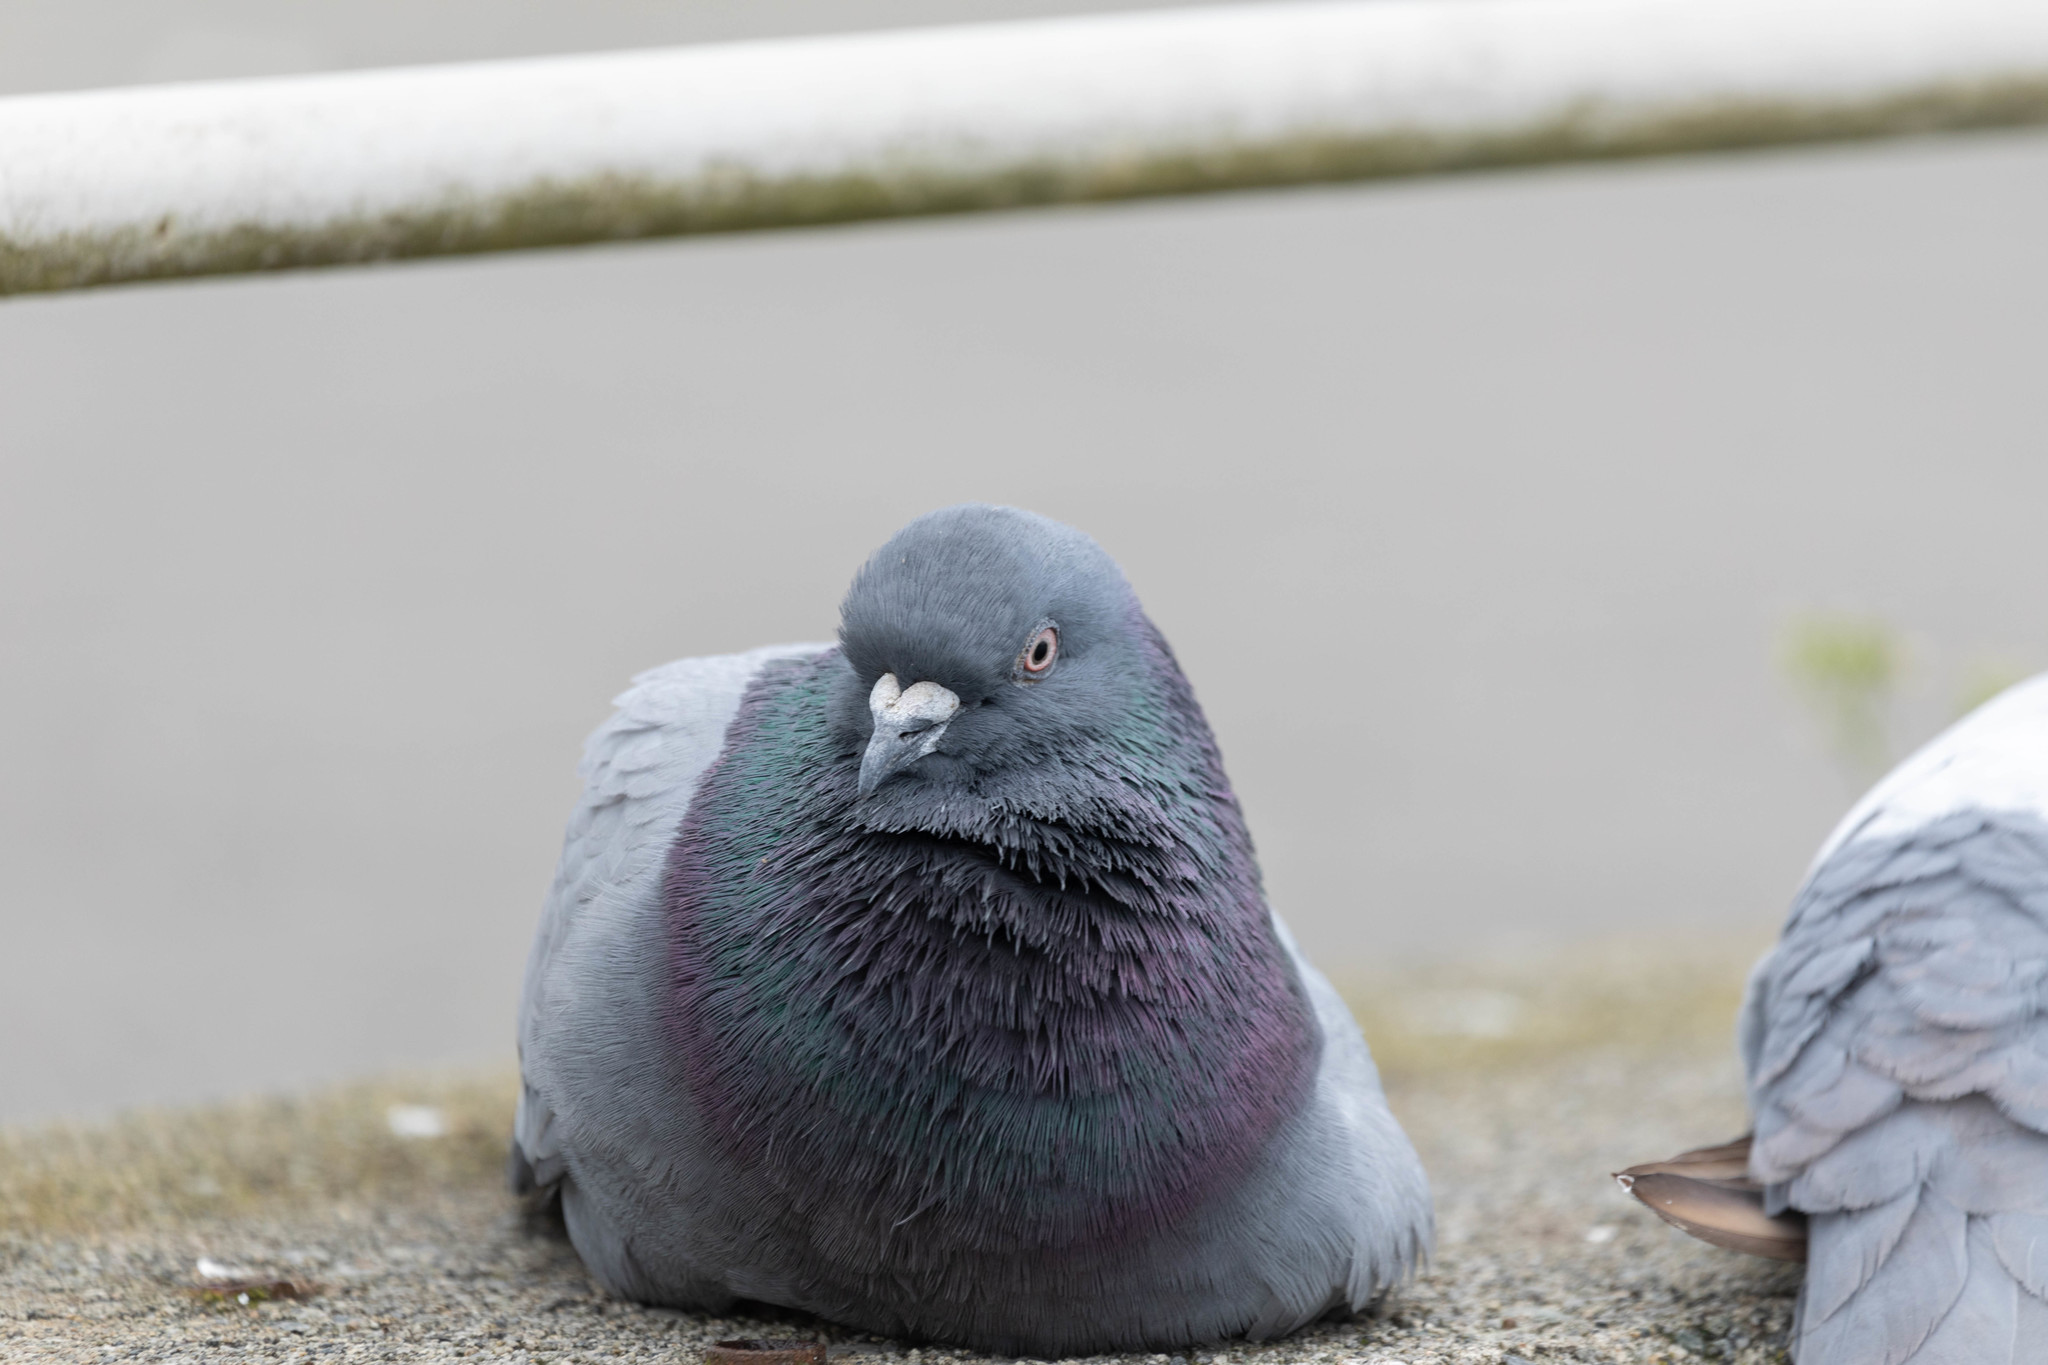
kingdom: Animalia
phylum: Chordata
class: Aves
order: Columbiformes
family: Columbidae
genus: Columba
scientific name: Columba livia
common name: Rock pigeon
